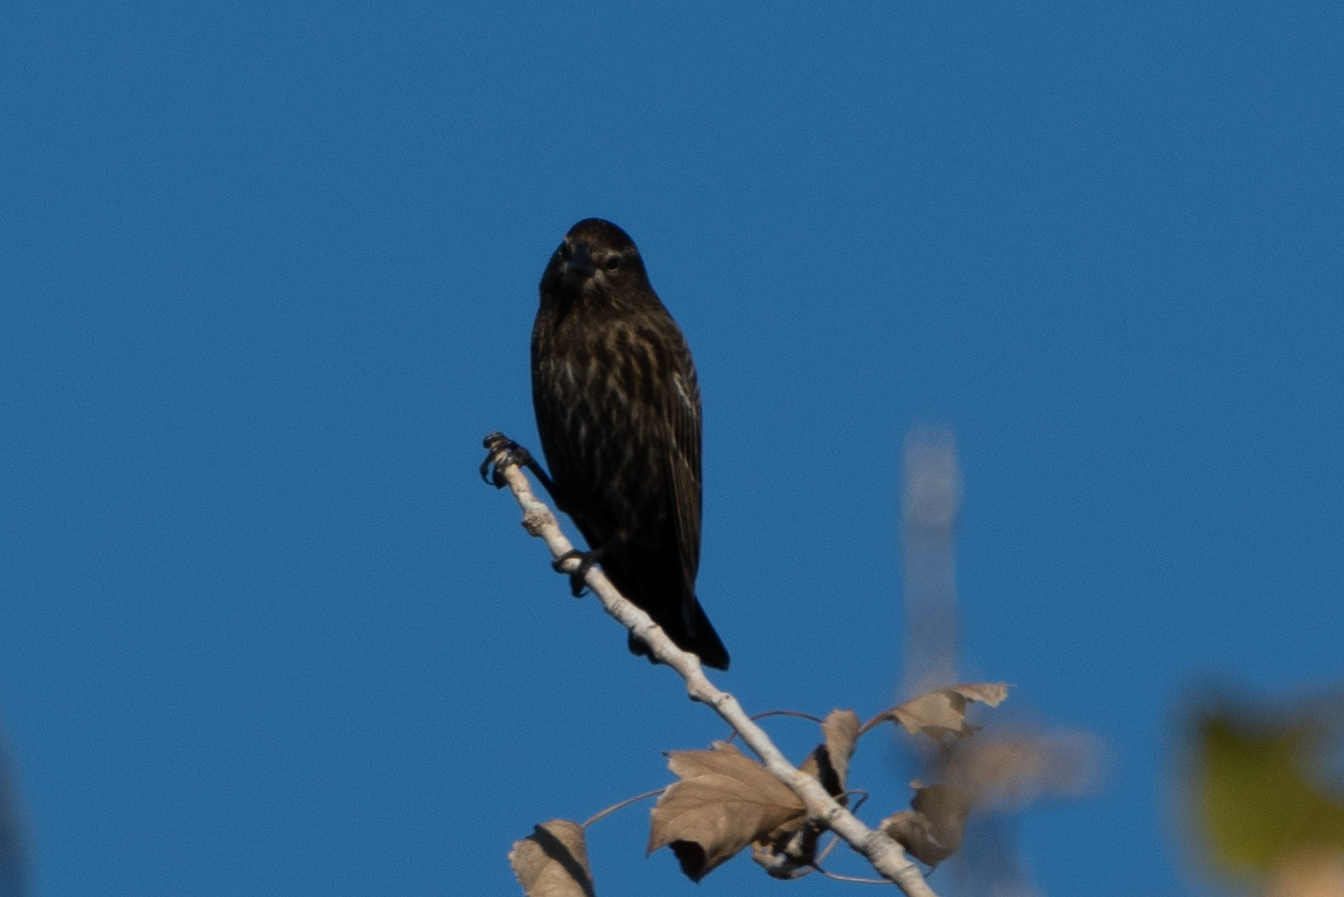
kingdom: Animalia
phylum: Chordata
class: Aves
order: Passeriformes
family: Icteridae
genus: Agelaius
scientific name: Agelaius phoeniceus
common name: Red-winged blackbird
